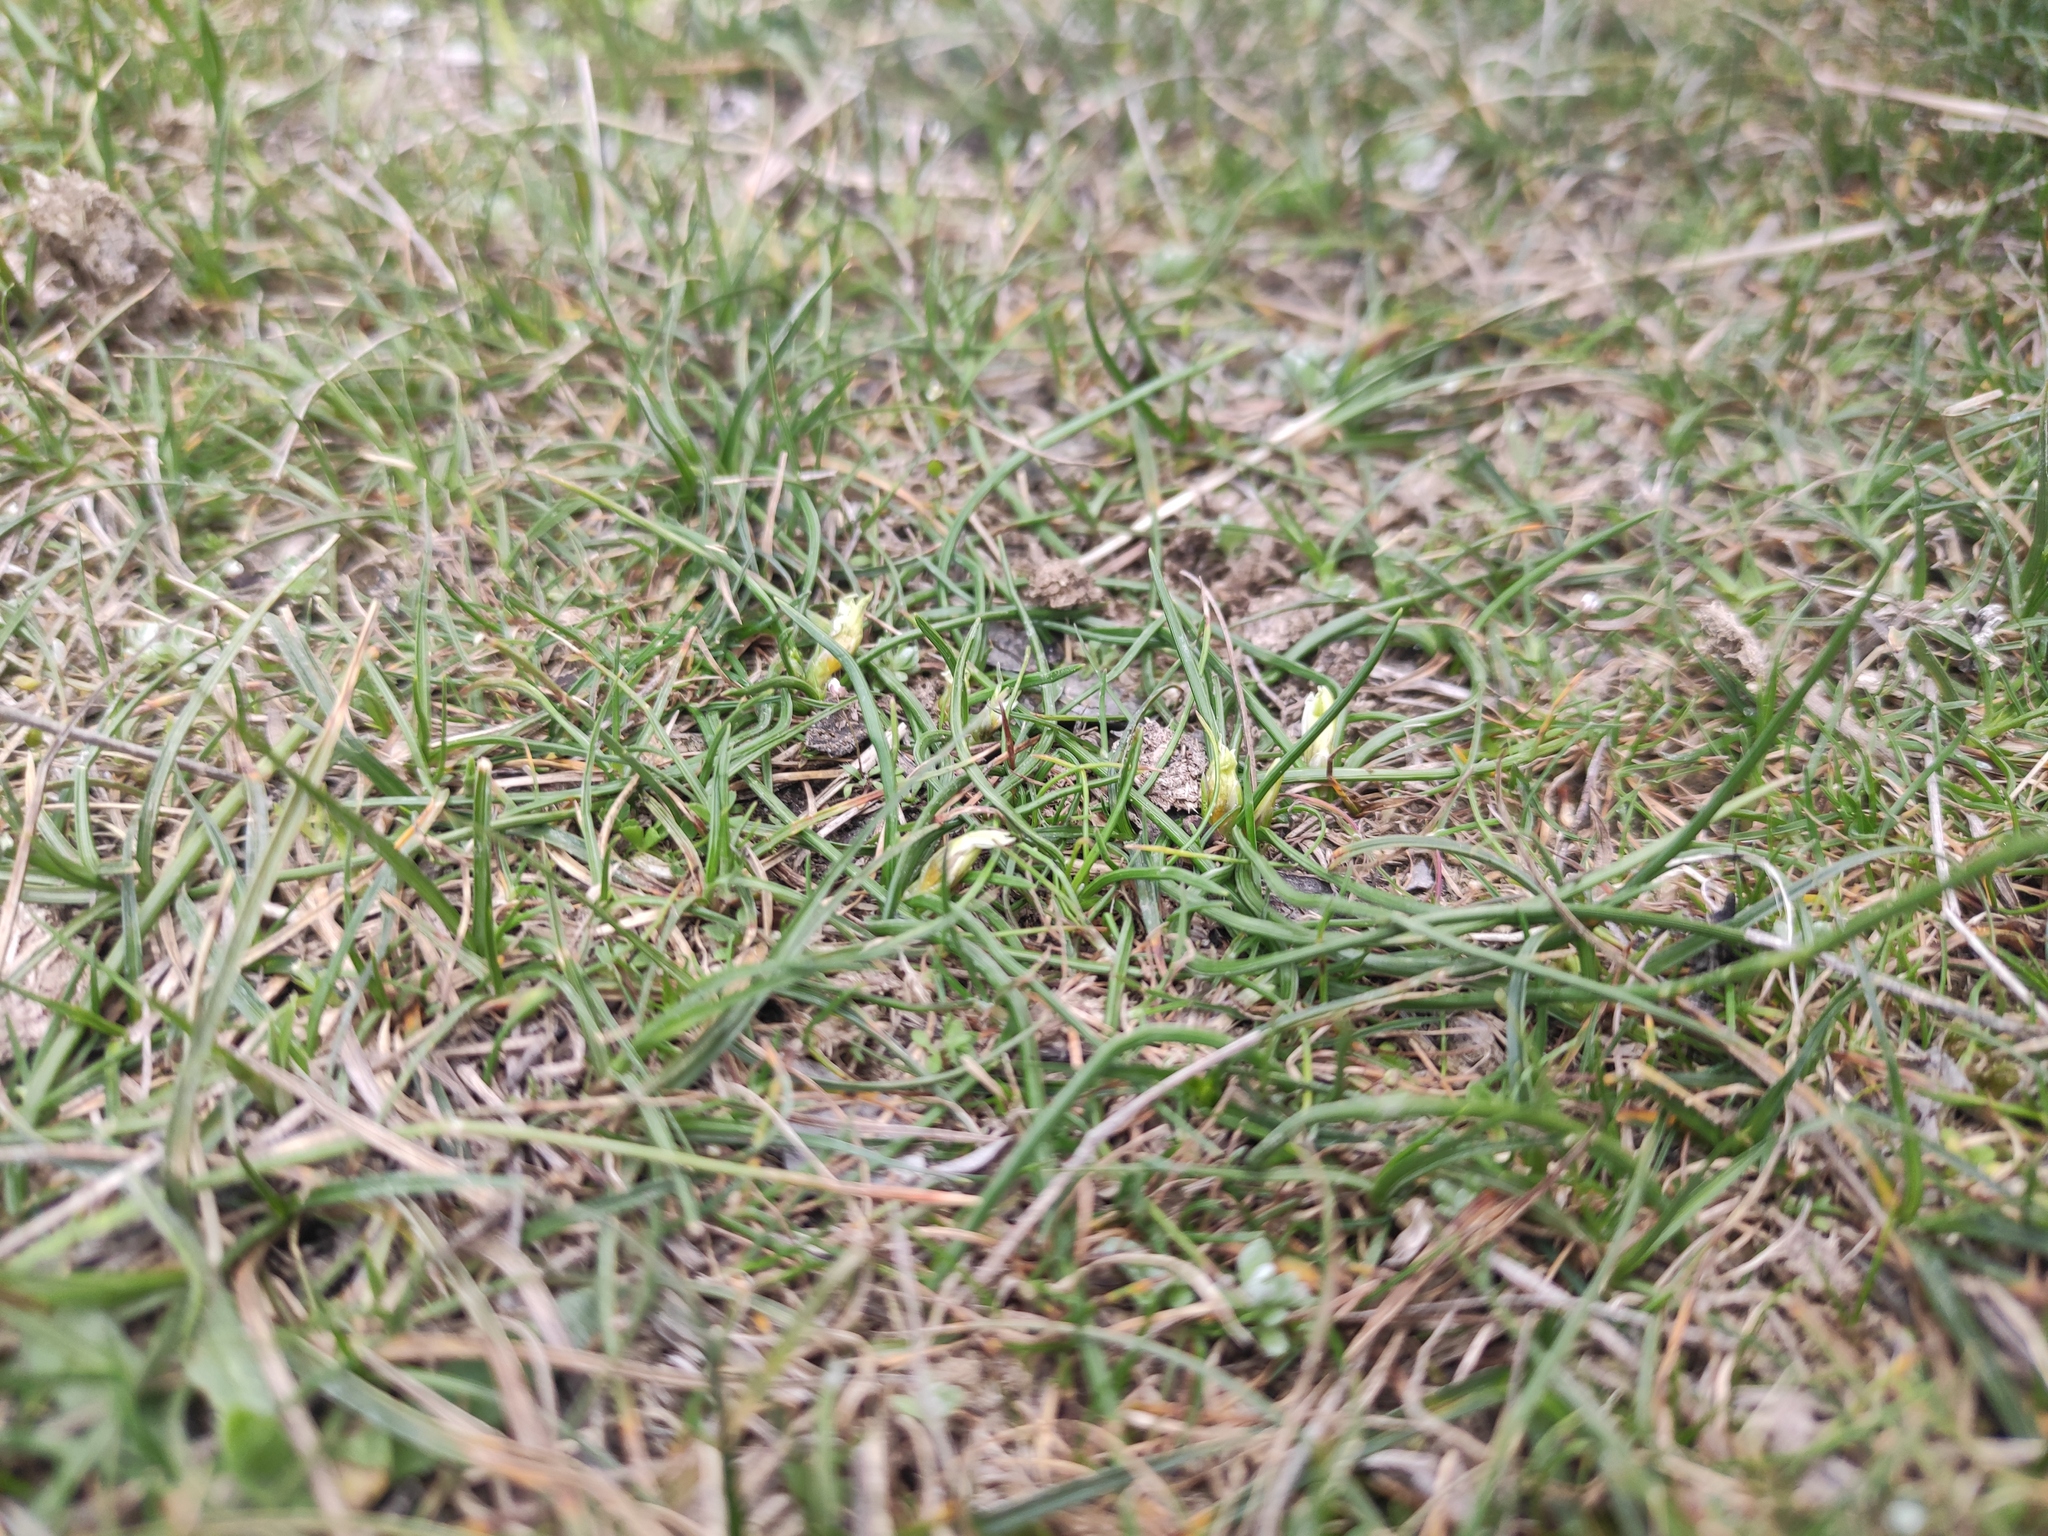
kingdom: Plantae
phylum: Tracheophyta
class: Liliopsida
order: Asparagales
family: Iridaceae
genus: Romulea
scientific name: Romulea columnae
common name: Sand-crocus
